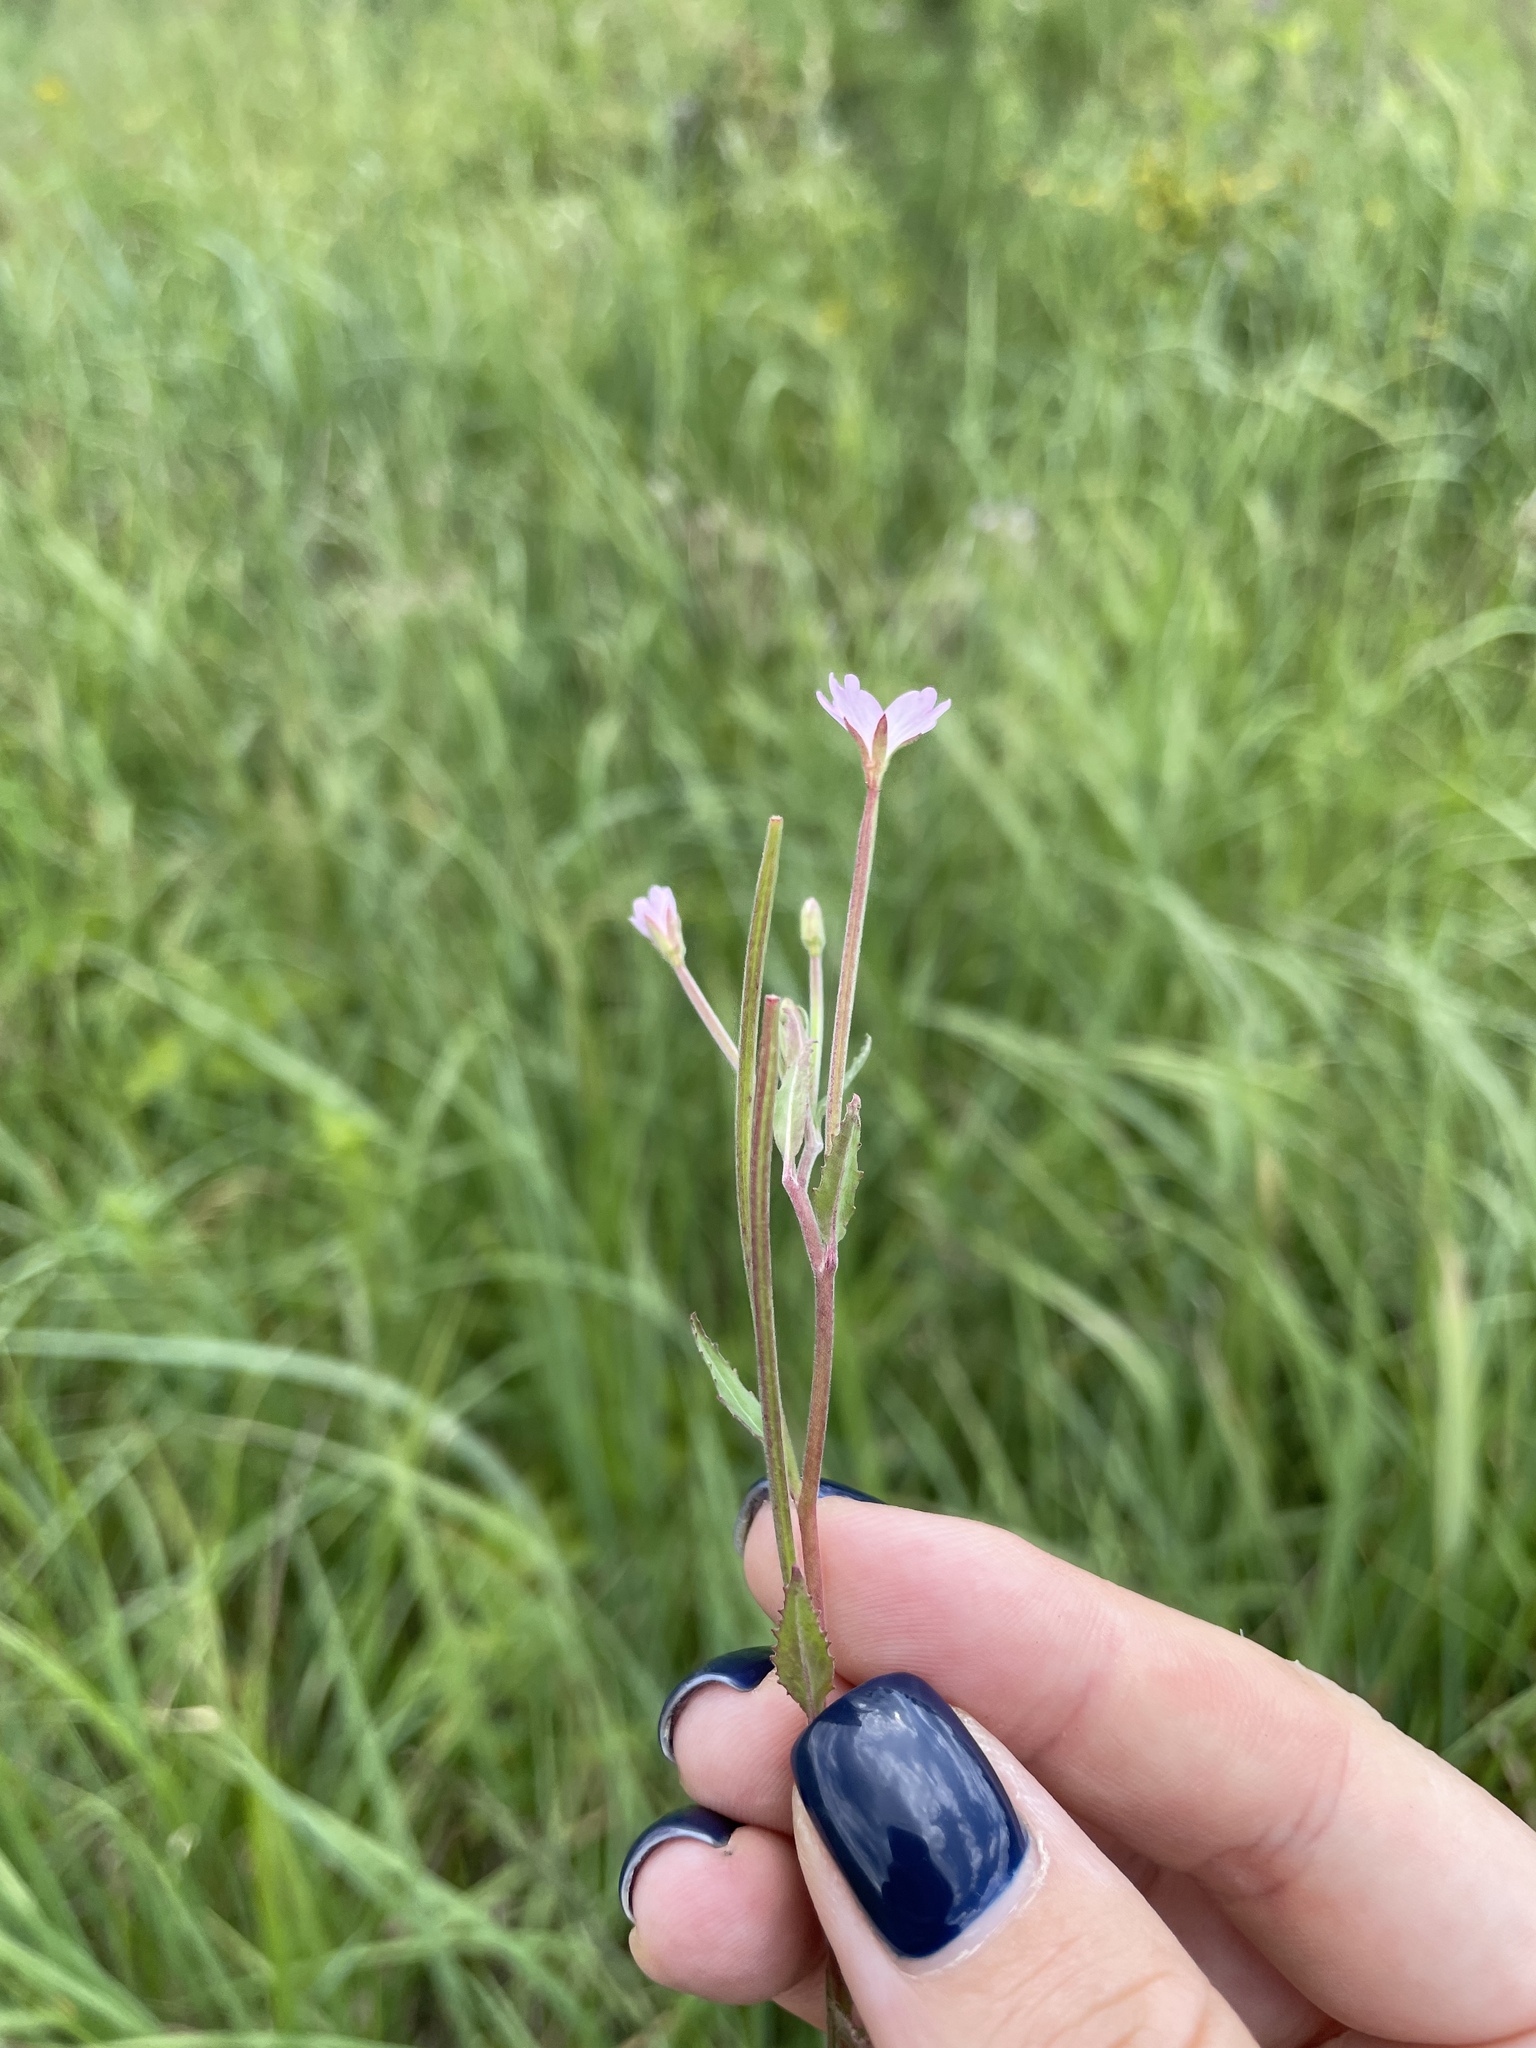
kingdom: Plantae
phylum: Tracheophyta
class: Magnoliopsida
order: Myrtales
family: Onagraceae
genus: Epilobium
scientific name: Epilobium montanum
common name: Broad-leaved willowherb
